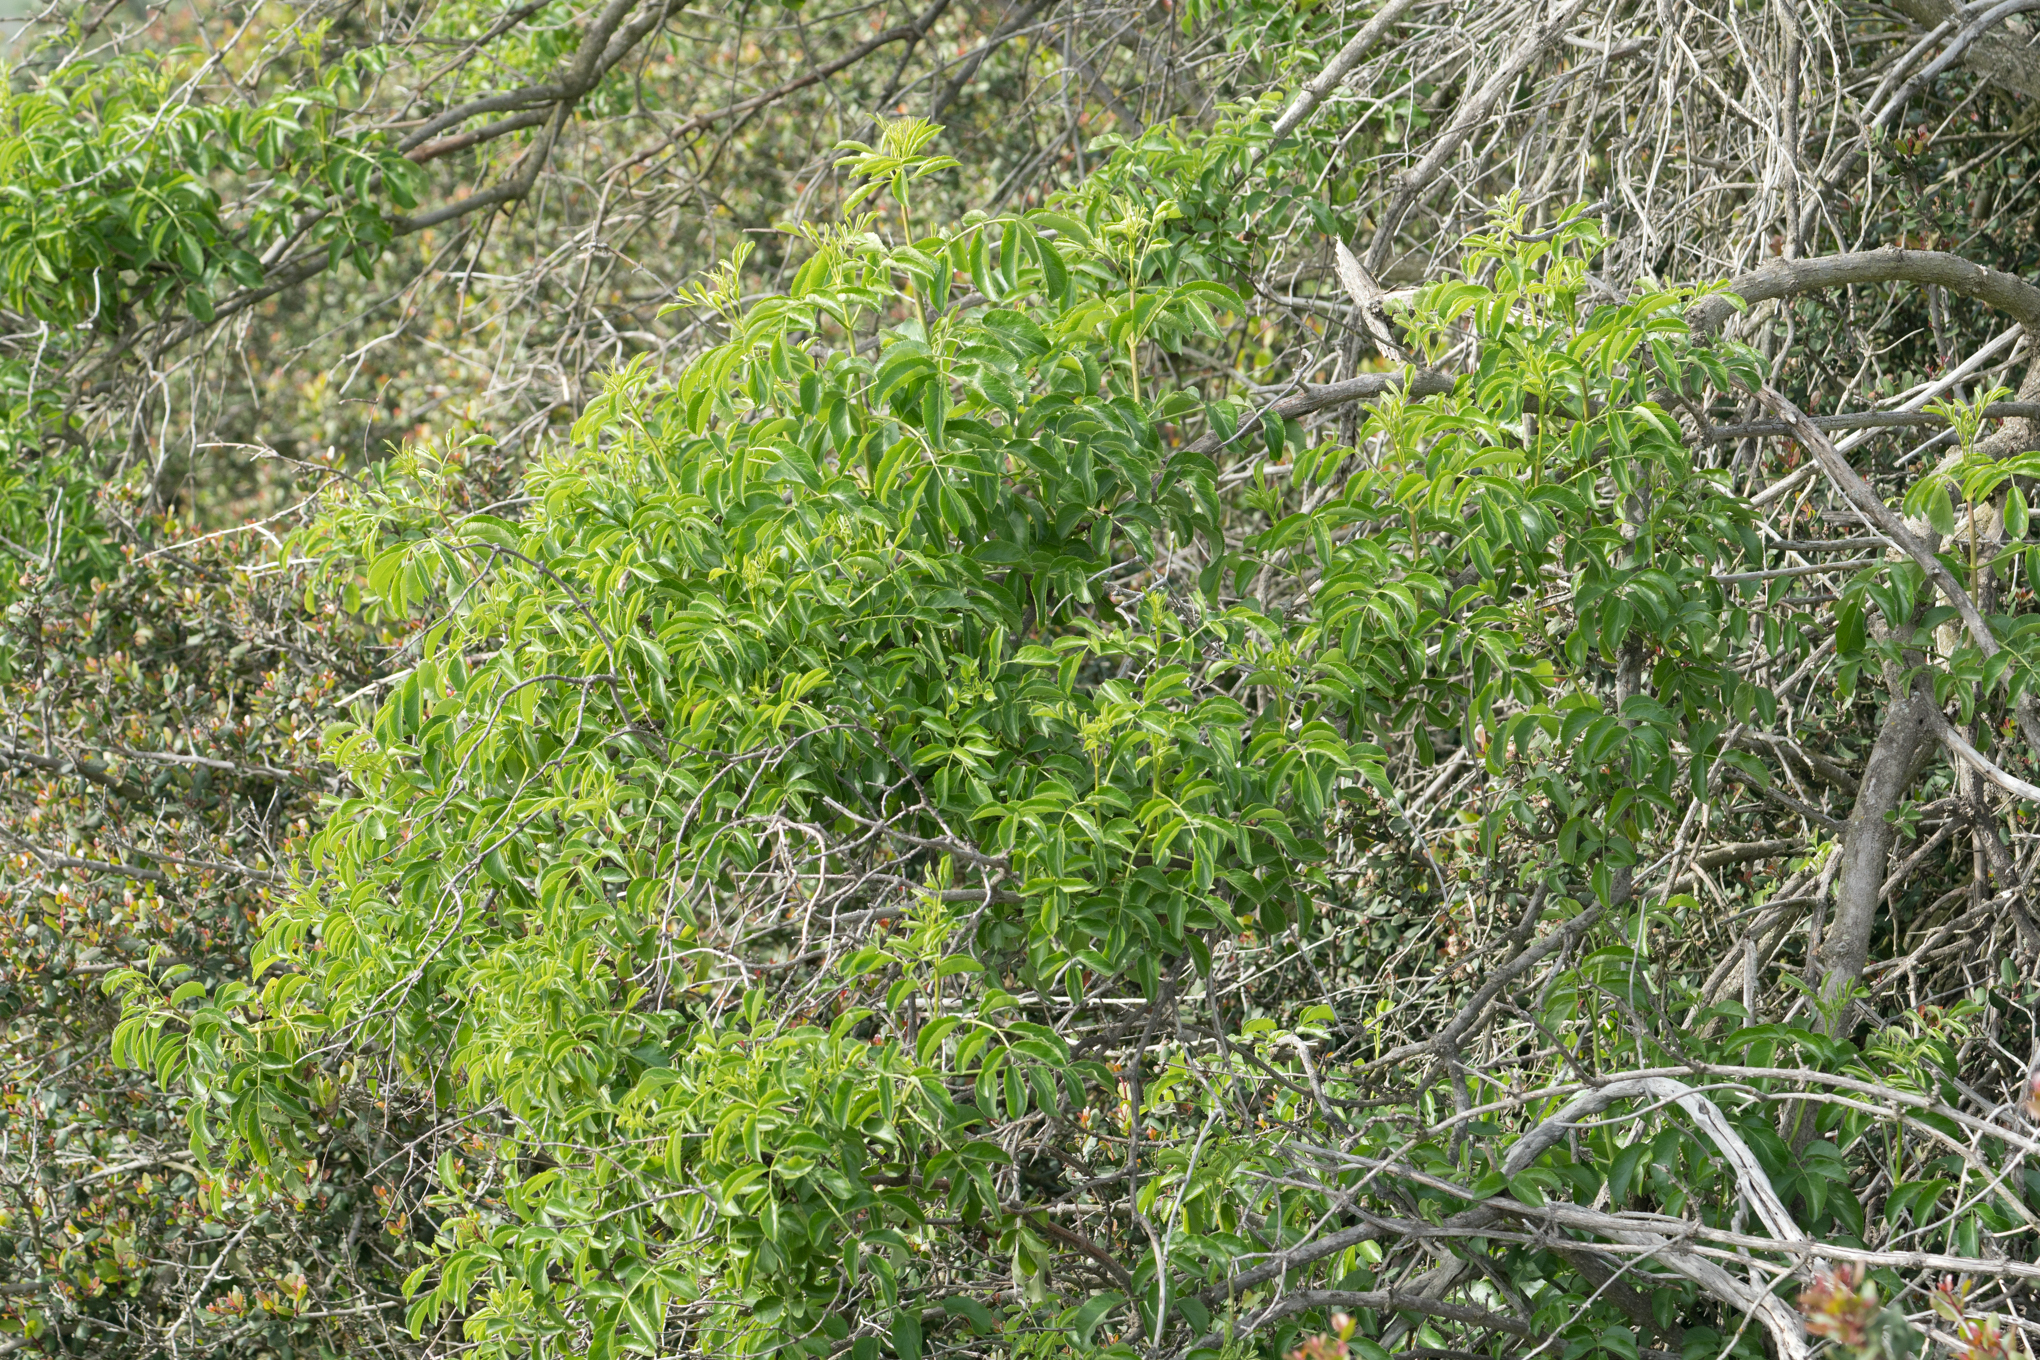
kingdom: Plantae
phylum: Tracheophyta
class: Magnoliopsida
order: Dipsacales
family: Viburnaceae
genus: Sambucus
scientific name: Sambucus cerulea
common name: Blue elder
